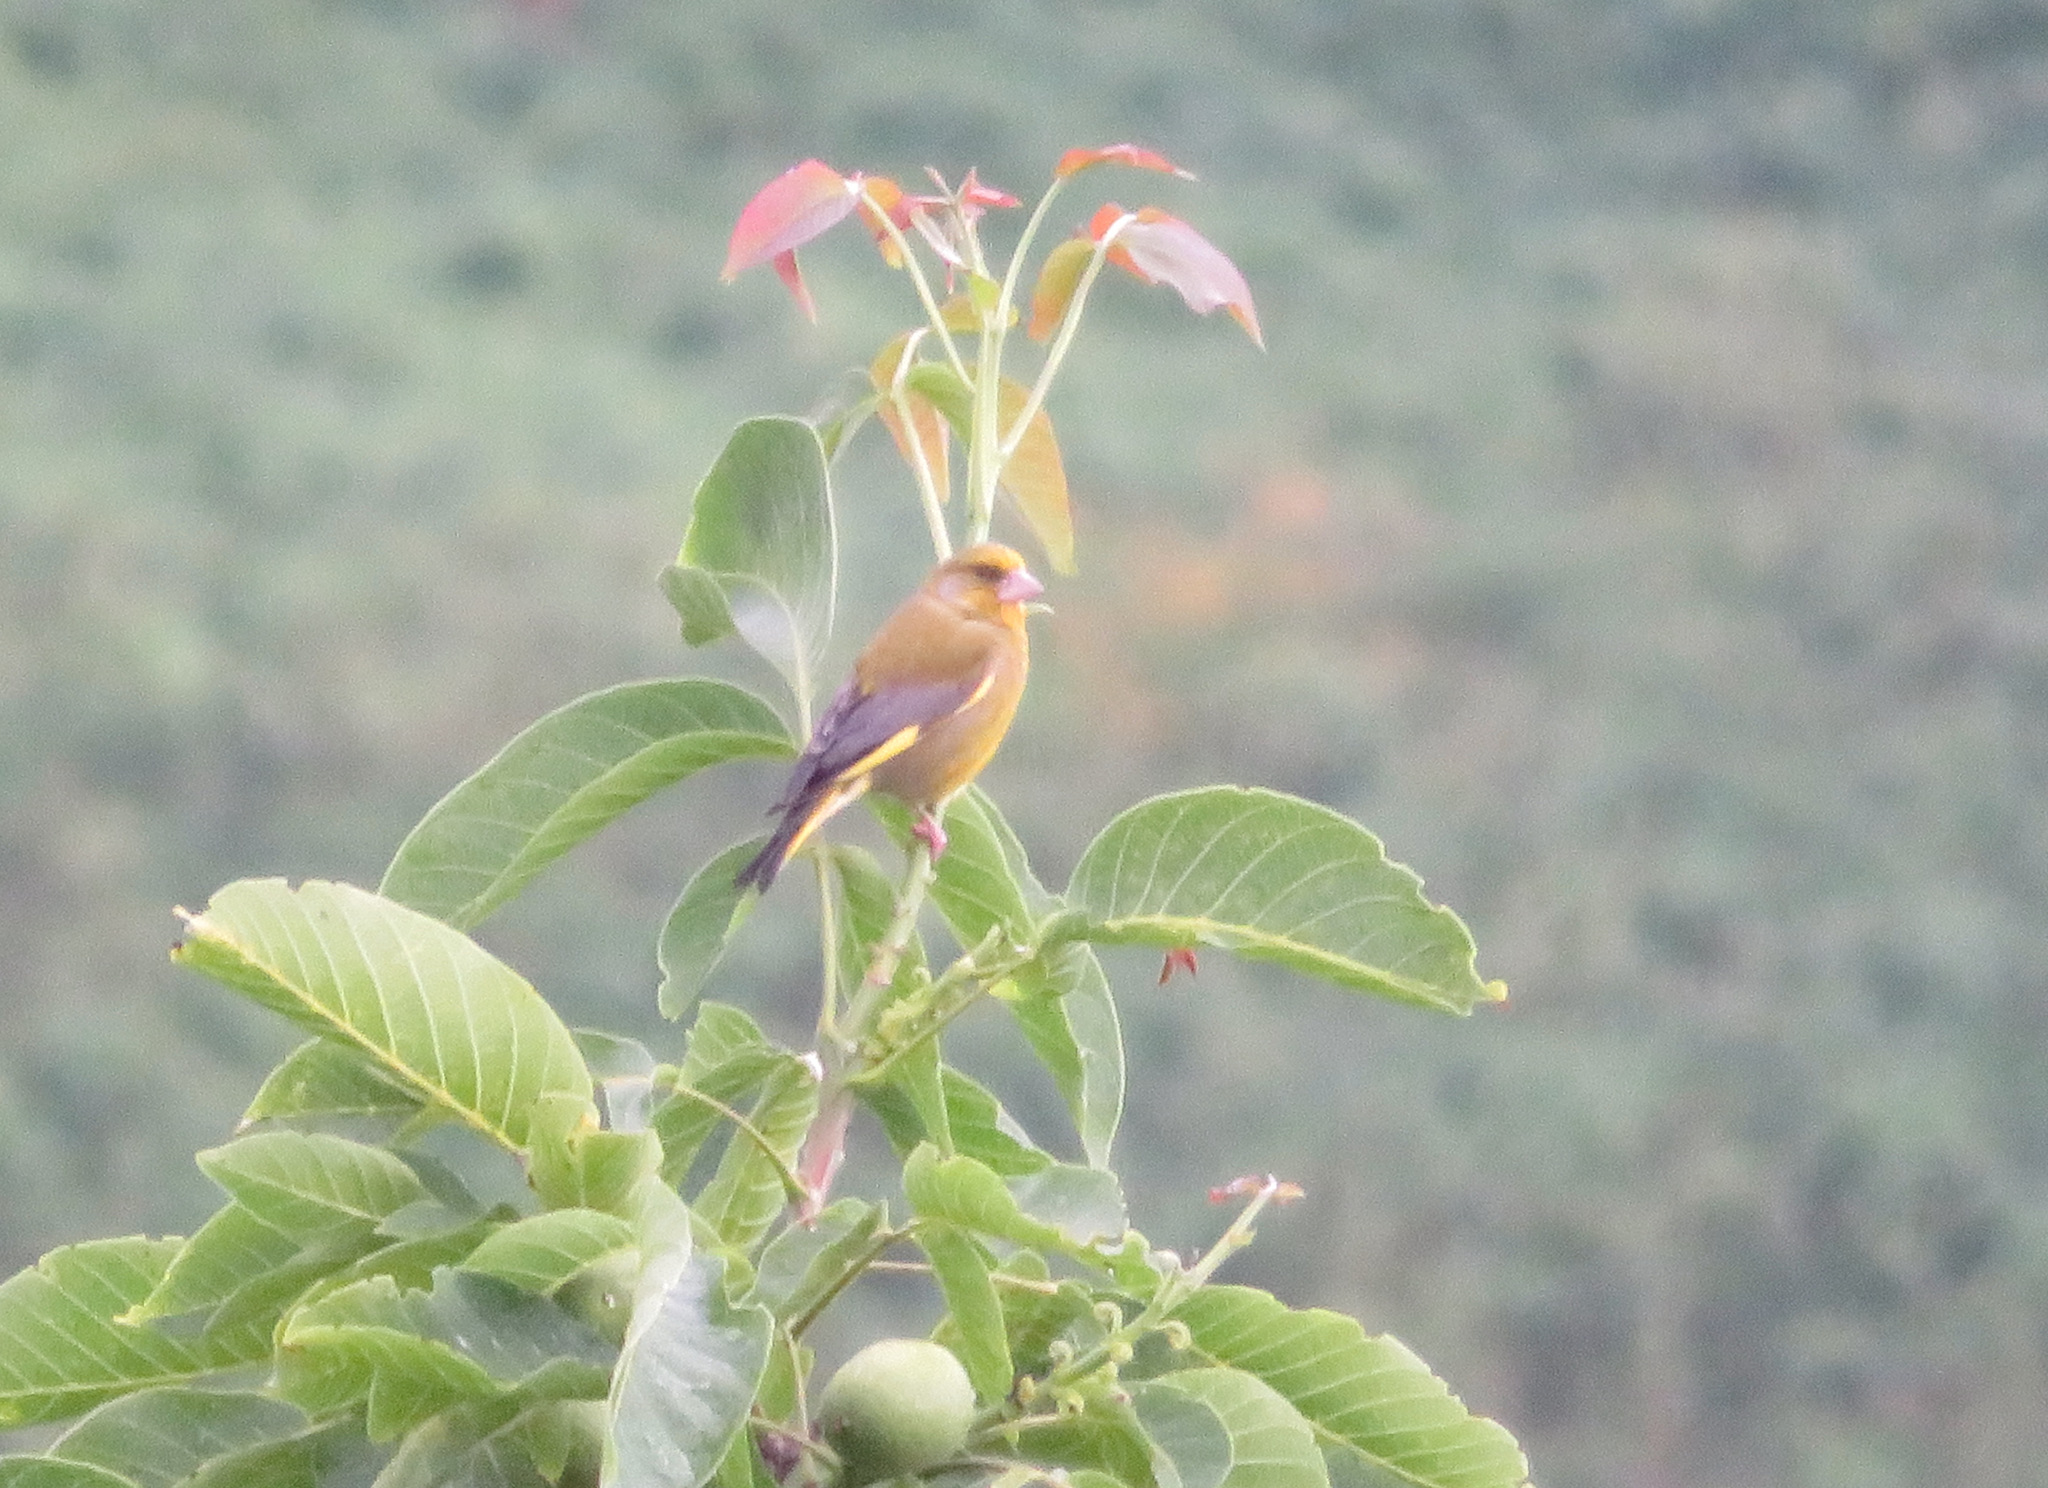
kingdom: Plantae
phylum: Tracheophyta
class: Liliopsida
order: Poales
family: Poaceae
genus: Chloris
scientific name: Chloris chloris
